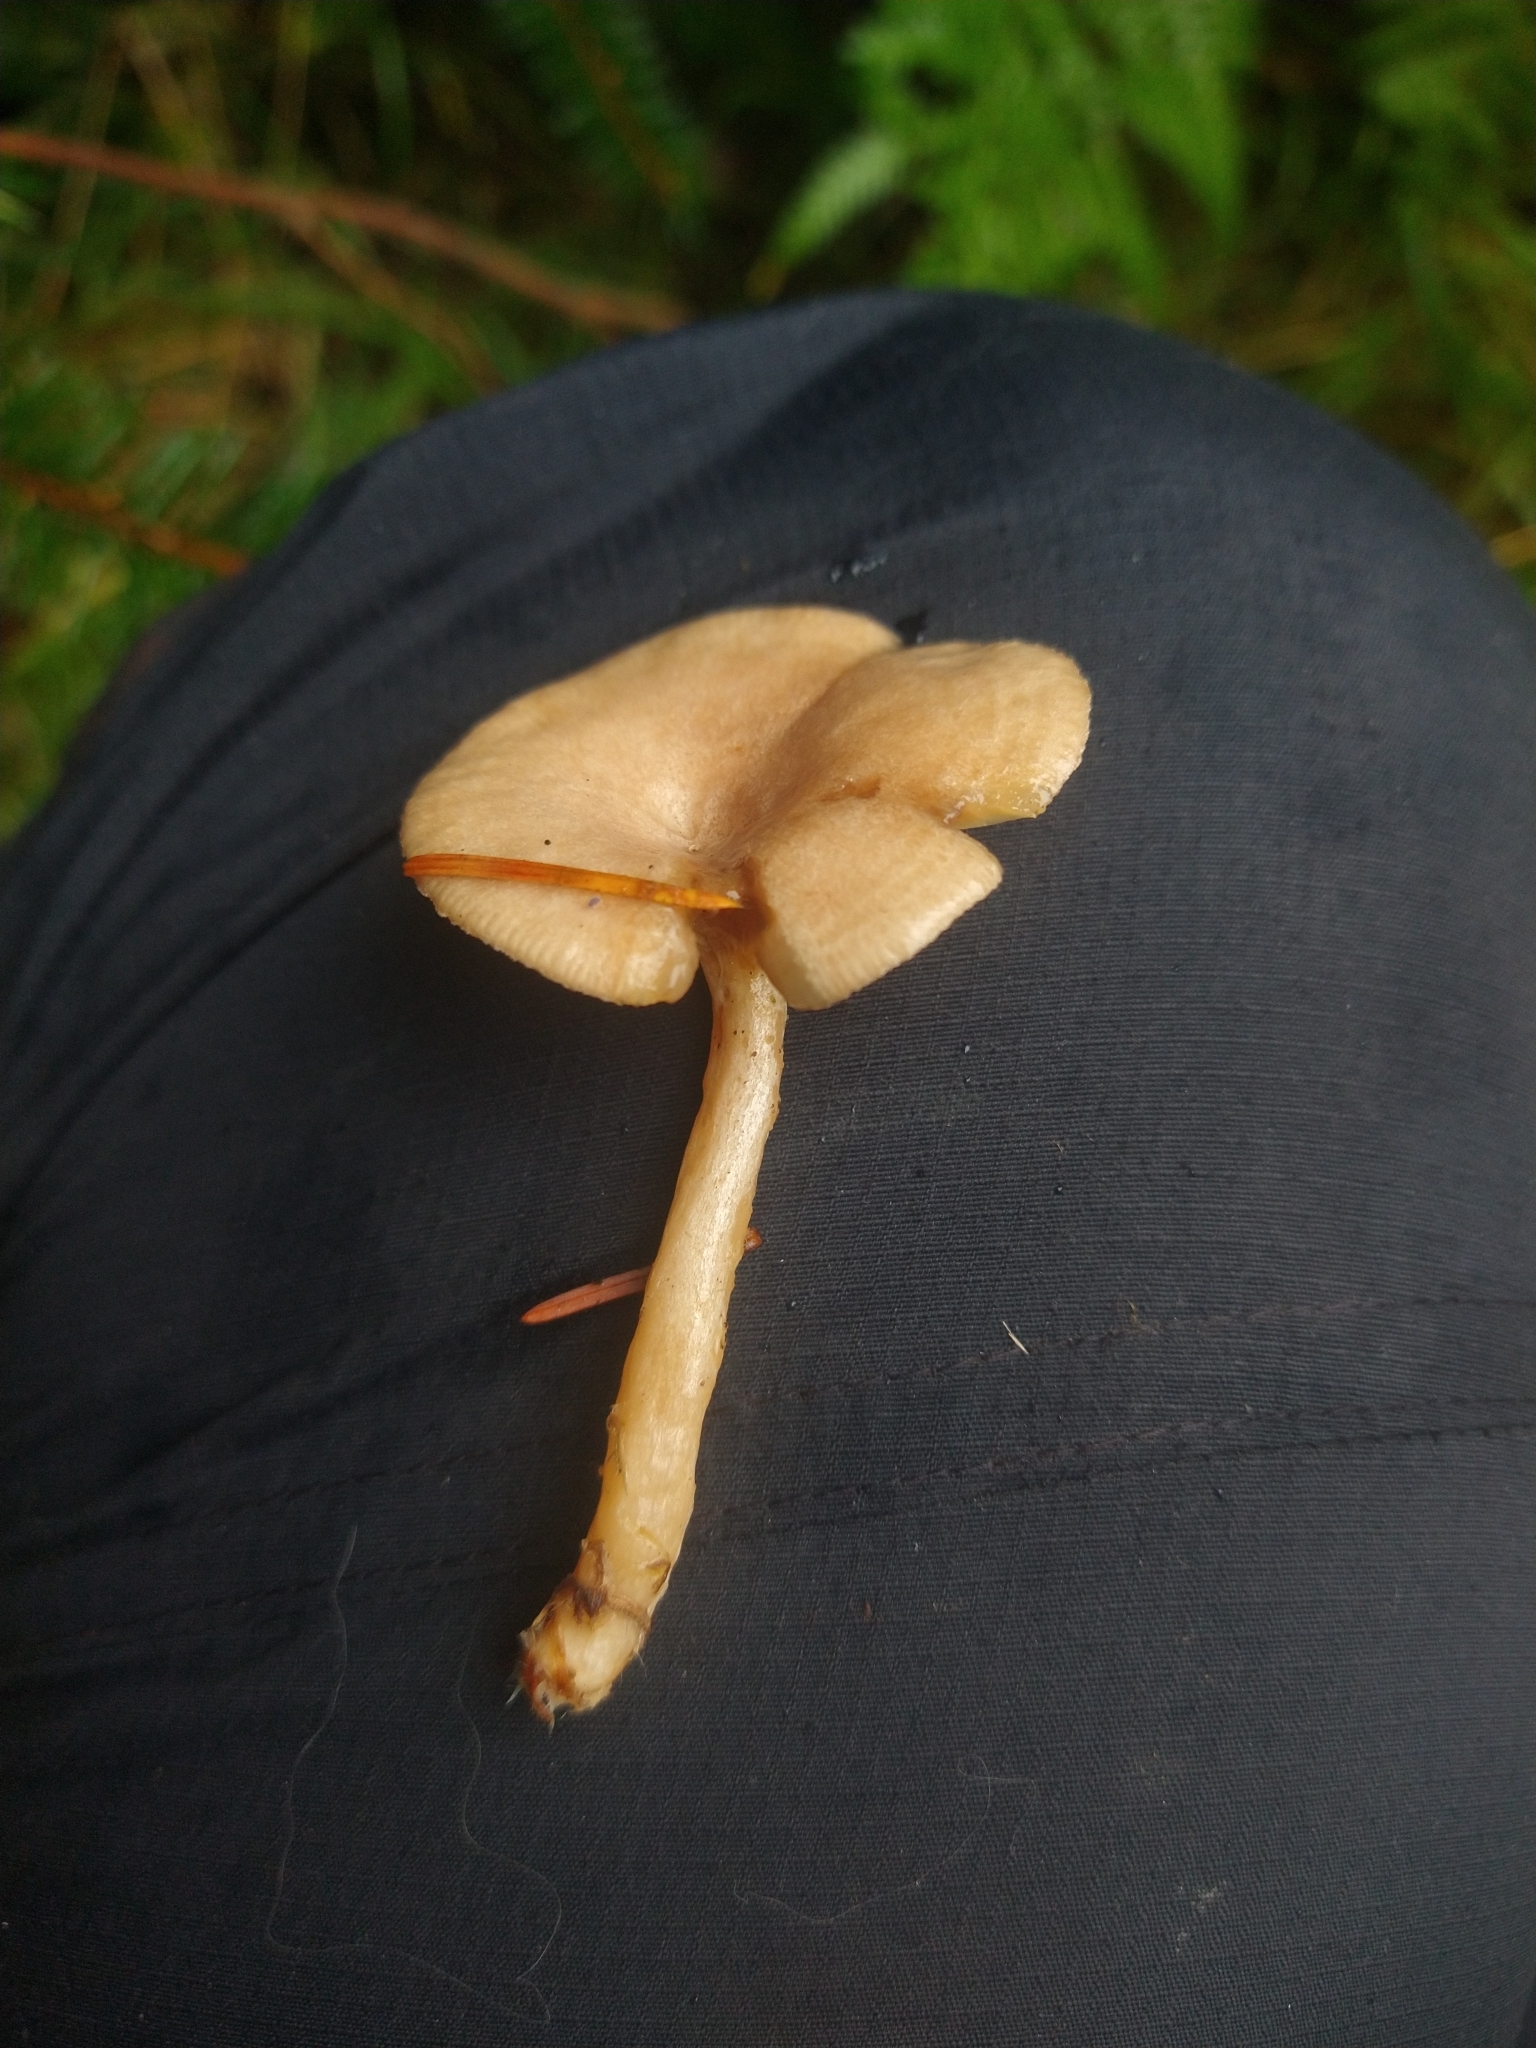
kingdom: Fungi
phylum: Basidiomycota
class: Agaricomycetes
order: Russulales
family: Russulaceae
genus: Lactarius
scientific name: Lactarius glyciosmus
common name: Coconut milkcap
